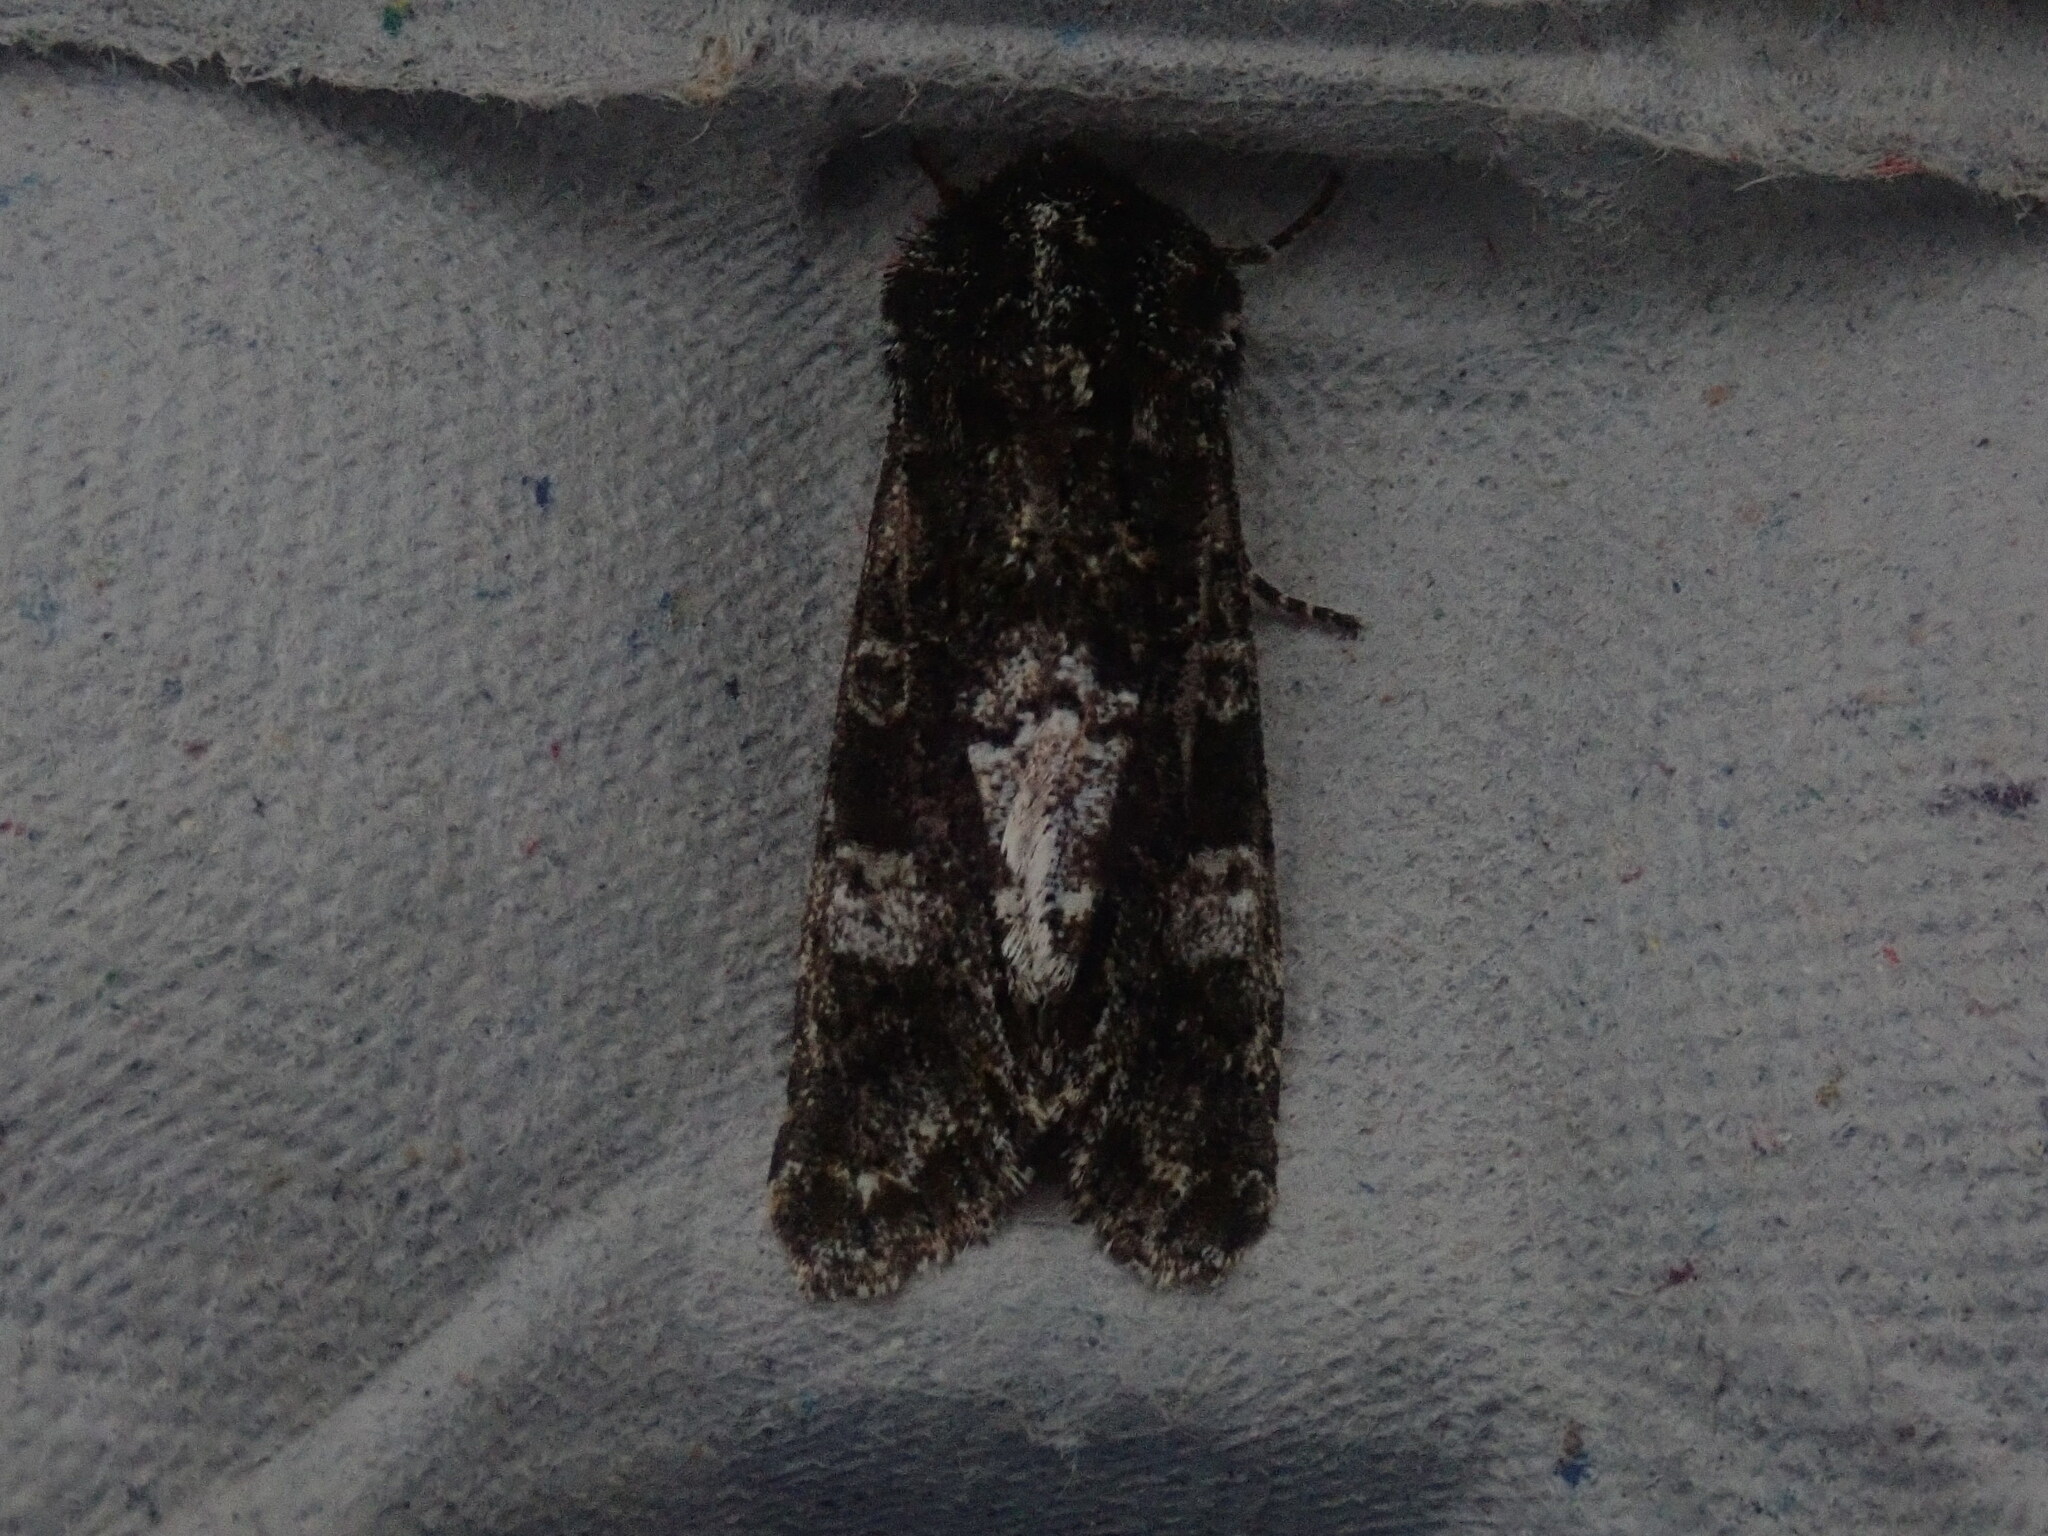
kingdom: Animalia
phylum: Arthropoda
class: Insecta
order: Lepidoptera
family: Noctuidae
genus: Psaphida
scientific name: Psaphida grotei
